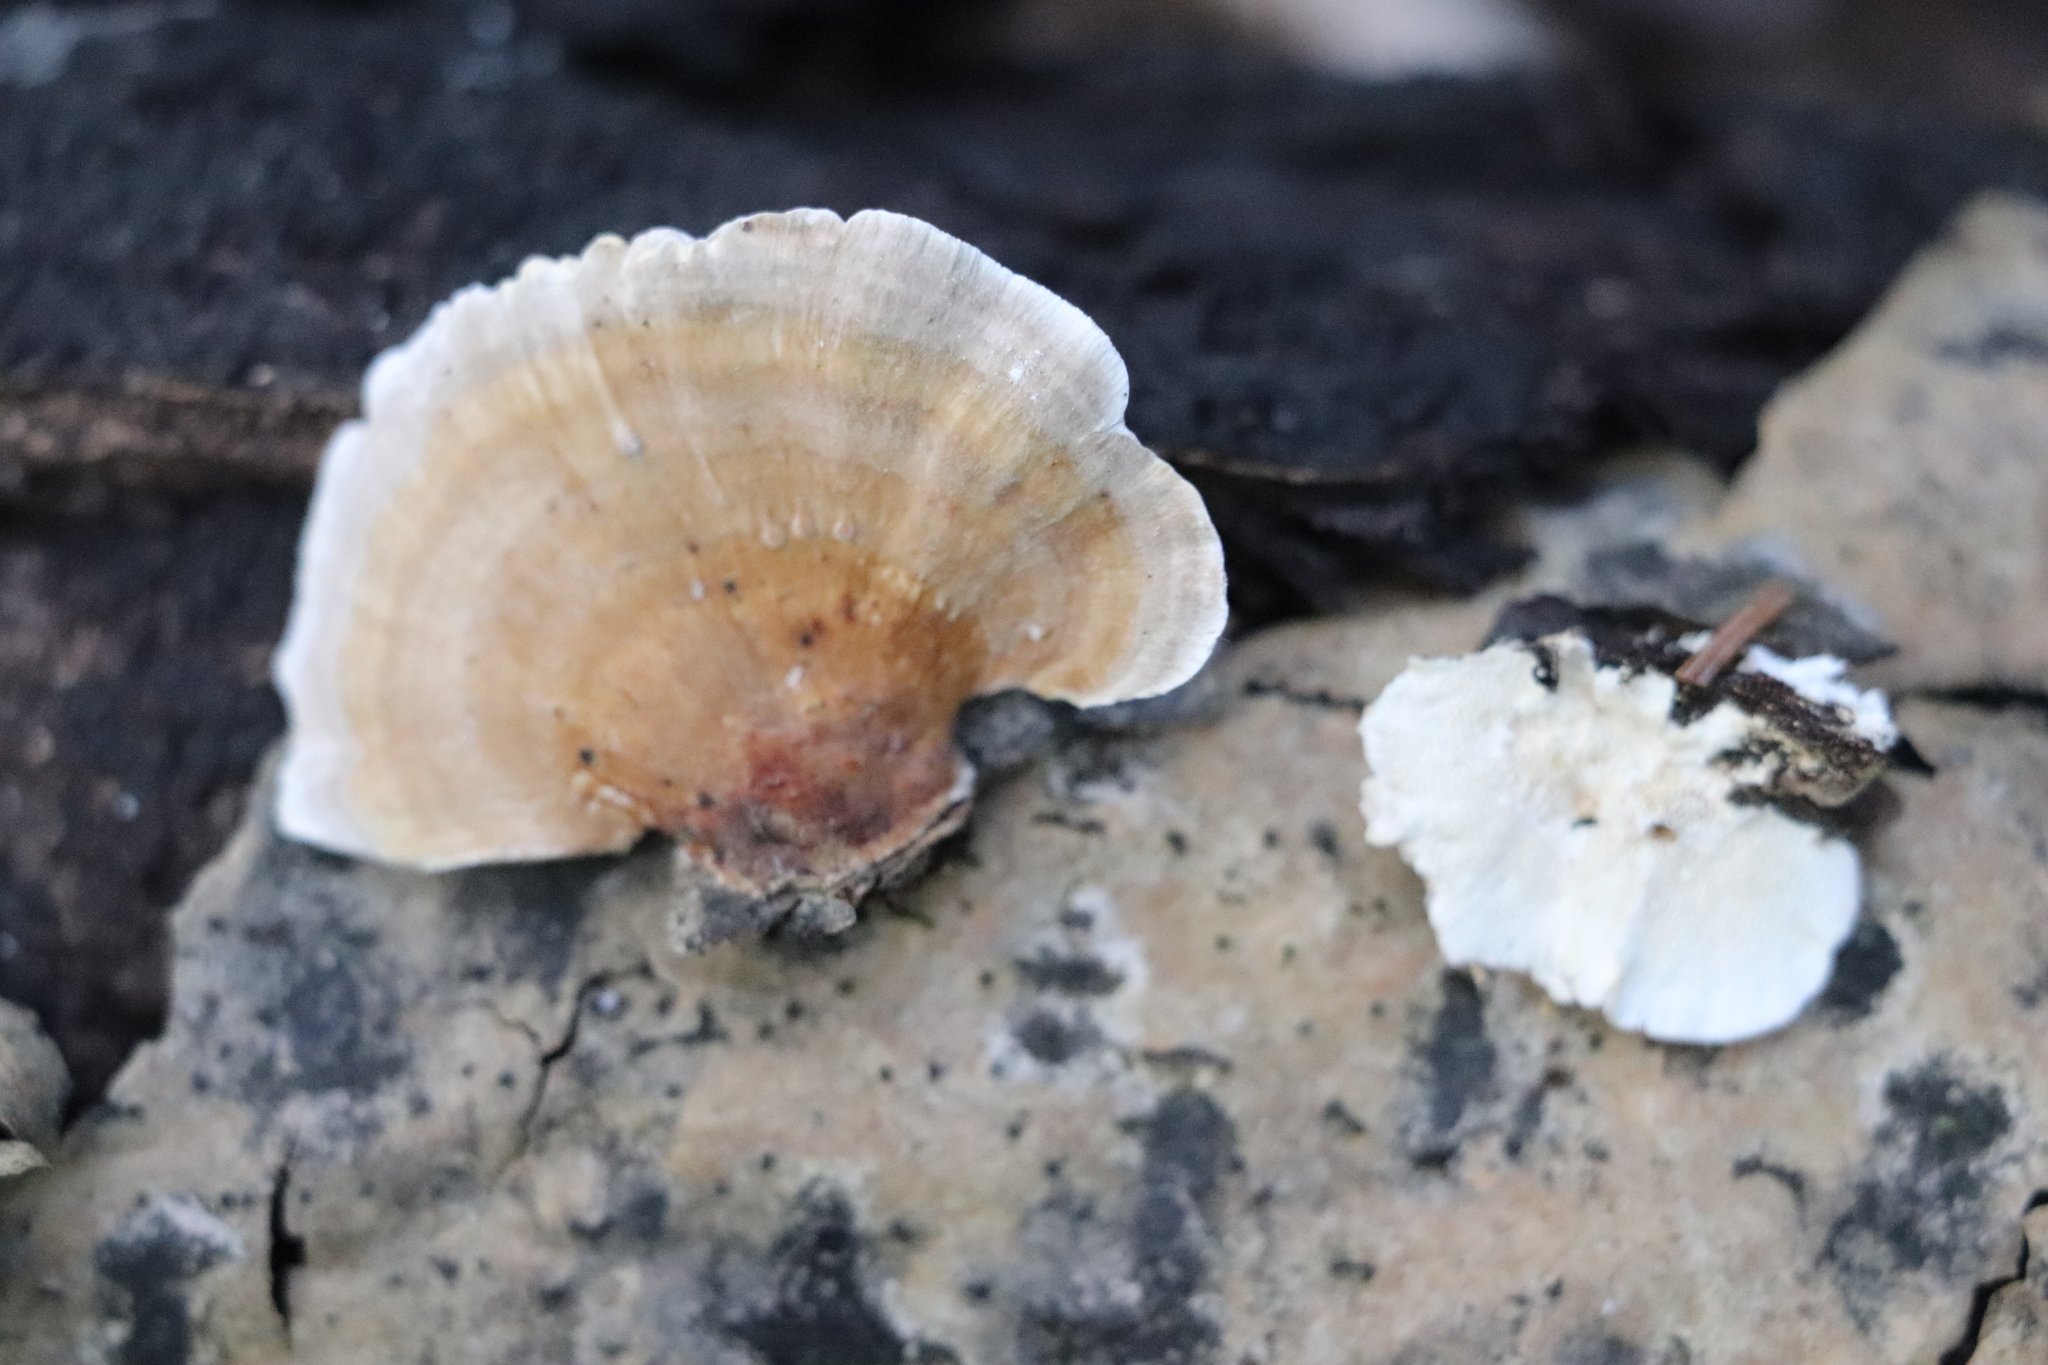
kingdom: Fungi
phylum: Basidiomycota
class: Agaricomycetes
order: Polyporales
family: Polyporaceae
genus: Trametes
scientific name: Trametes ochracea
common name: Ochre bracket
